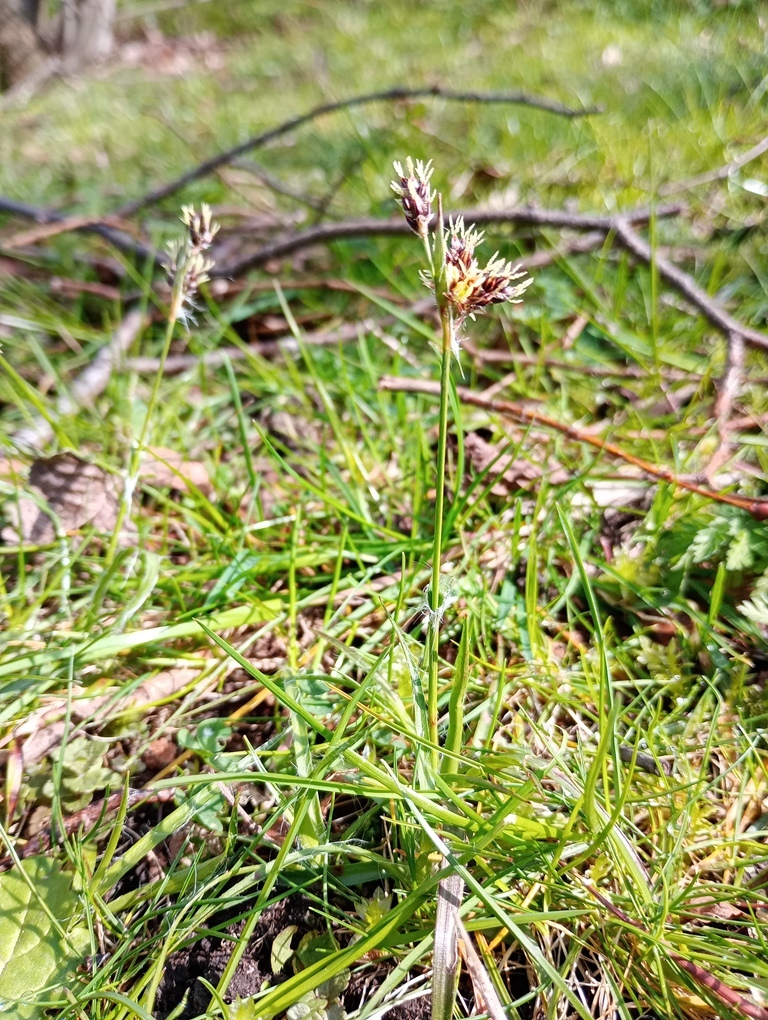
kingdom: Plantae
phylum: Tracheophyta
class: Liliopsida
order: Poales
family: Juncaceae
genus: Luzula
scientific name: Luzula campestris
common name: Field wood-rush
